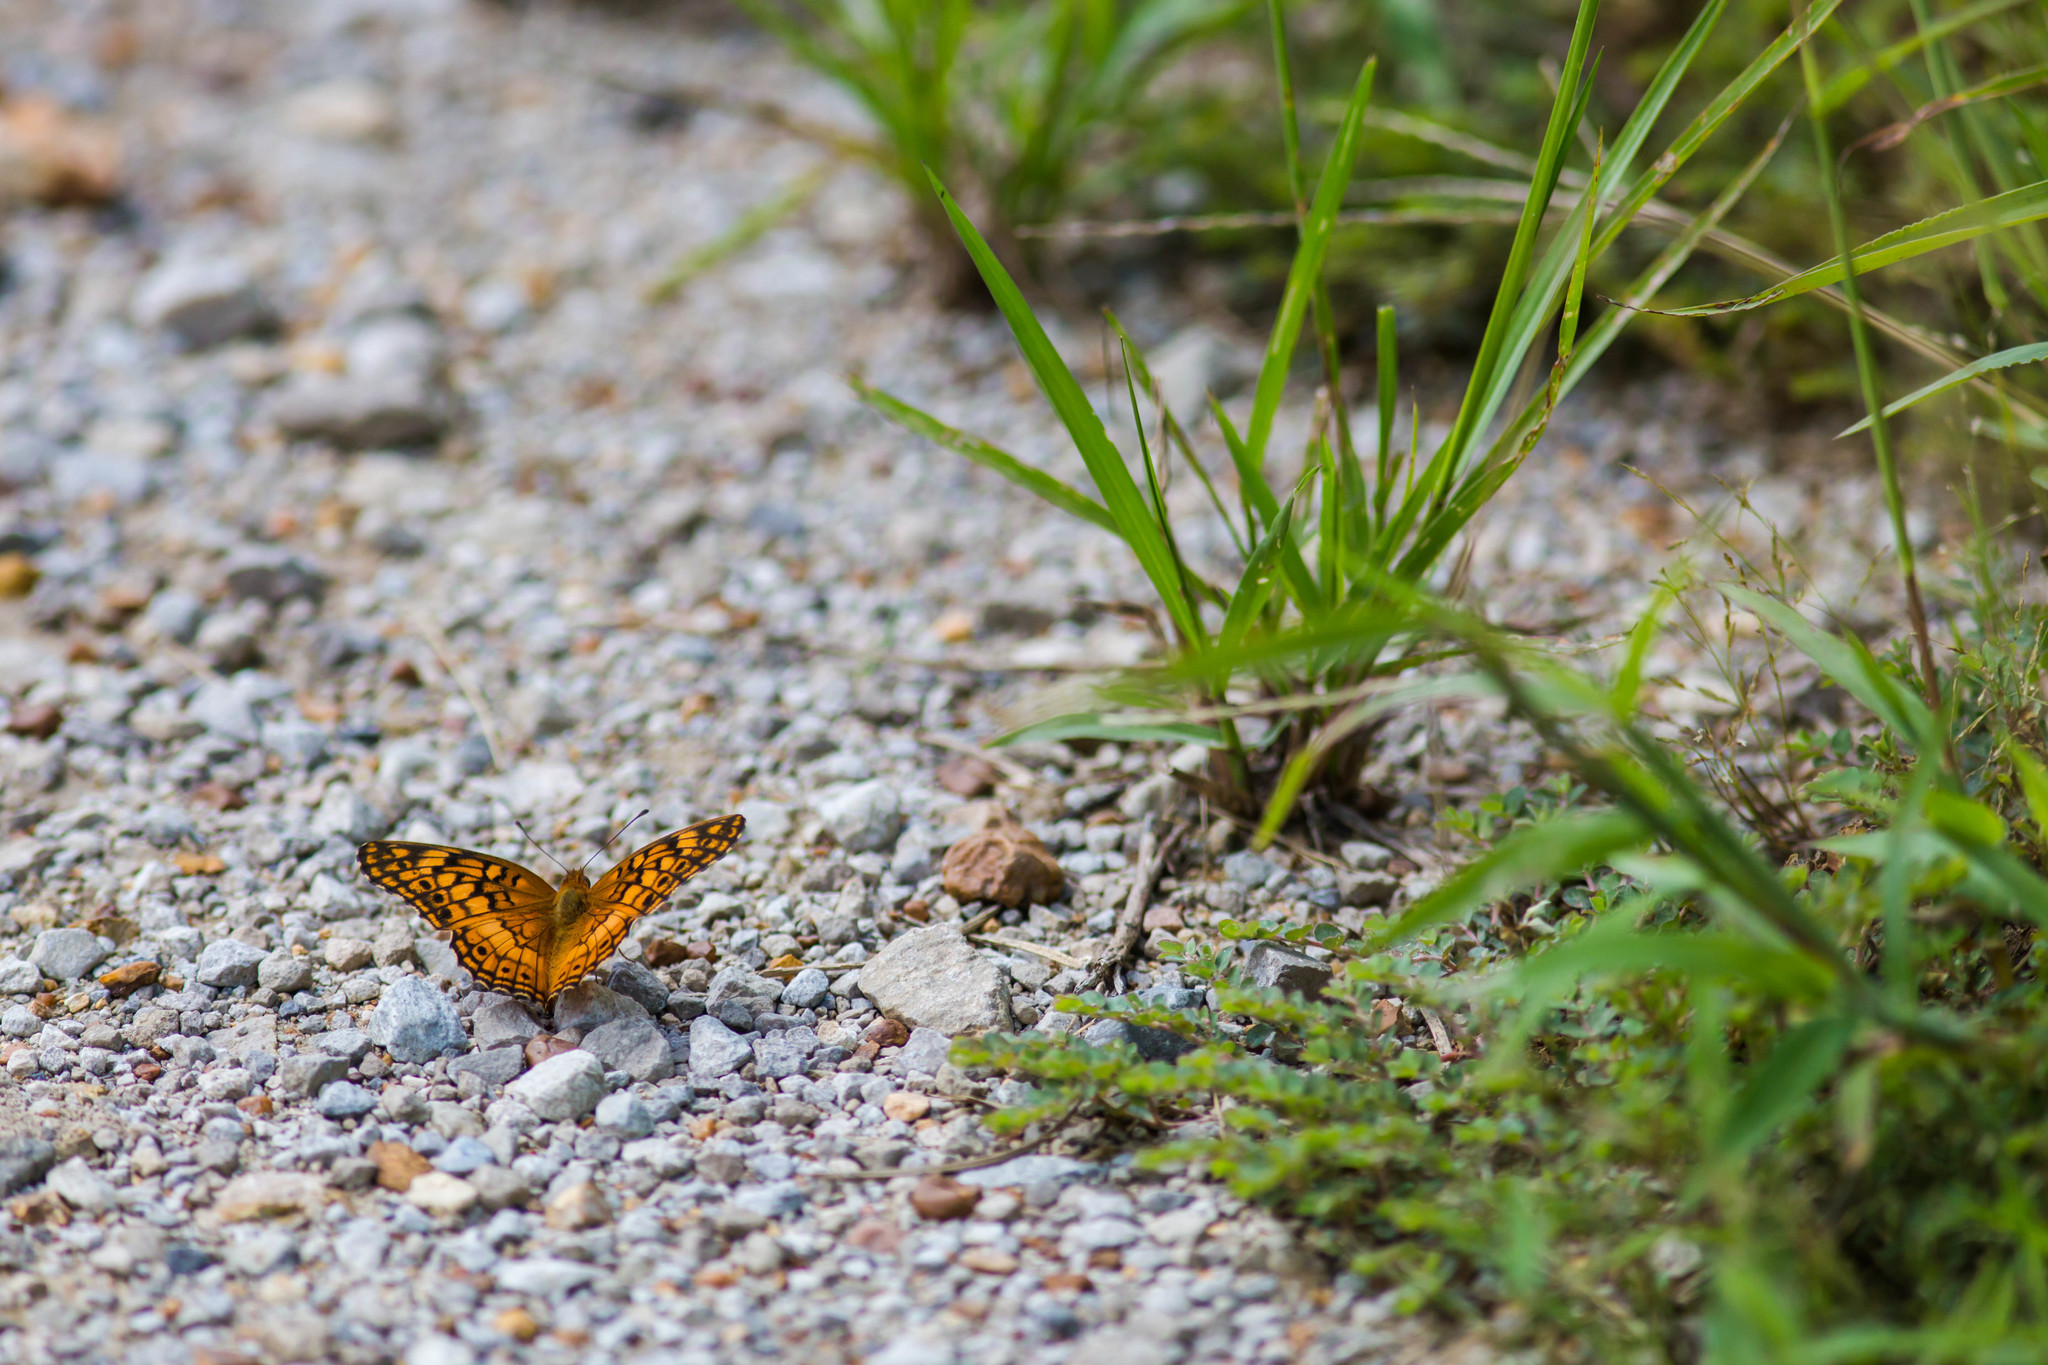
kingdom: Animalia
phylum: Arthropoda
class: Insecta
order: Lepidoptera
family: Nymphalidae
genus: Euptoieta
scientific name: Euptoieta claudia
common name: Variegated fritillary
